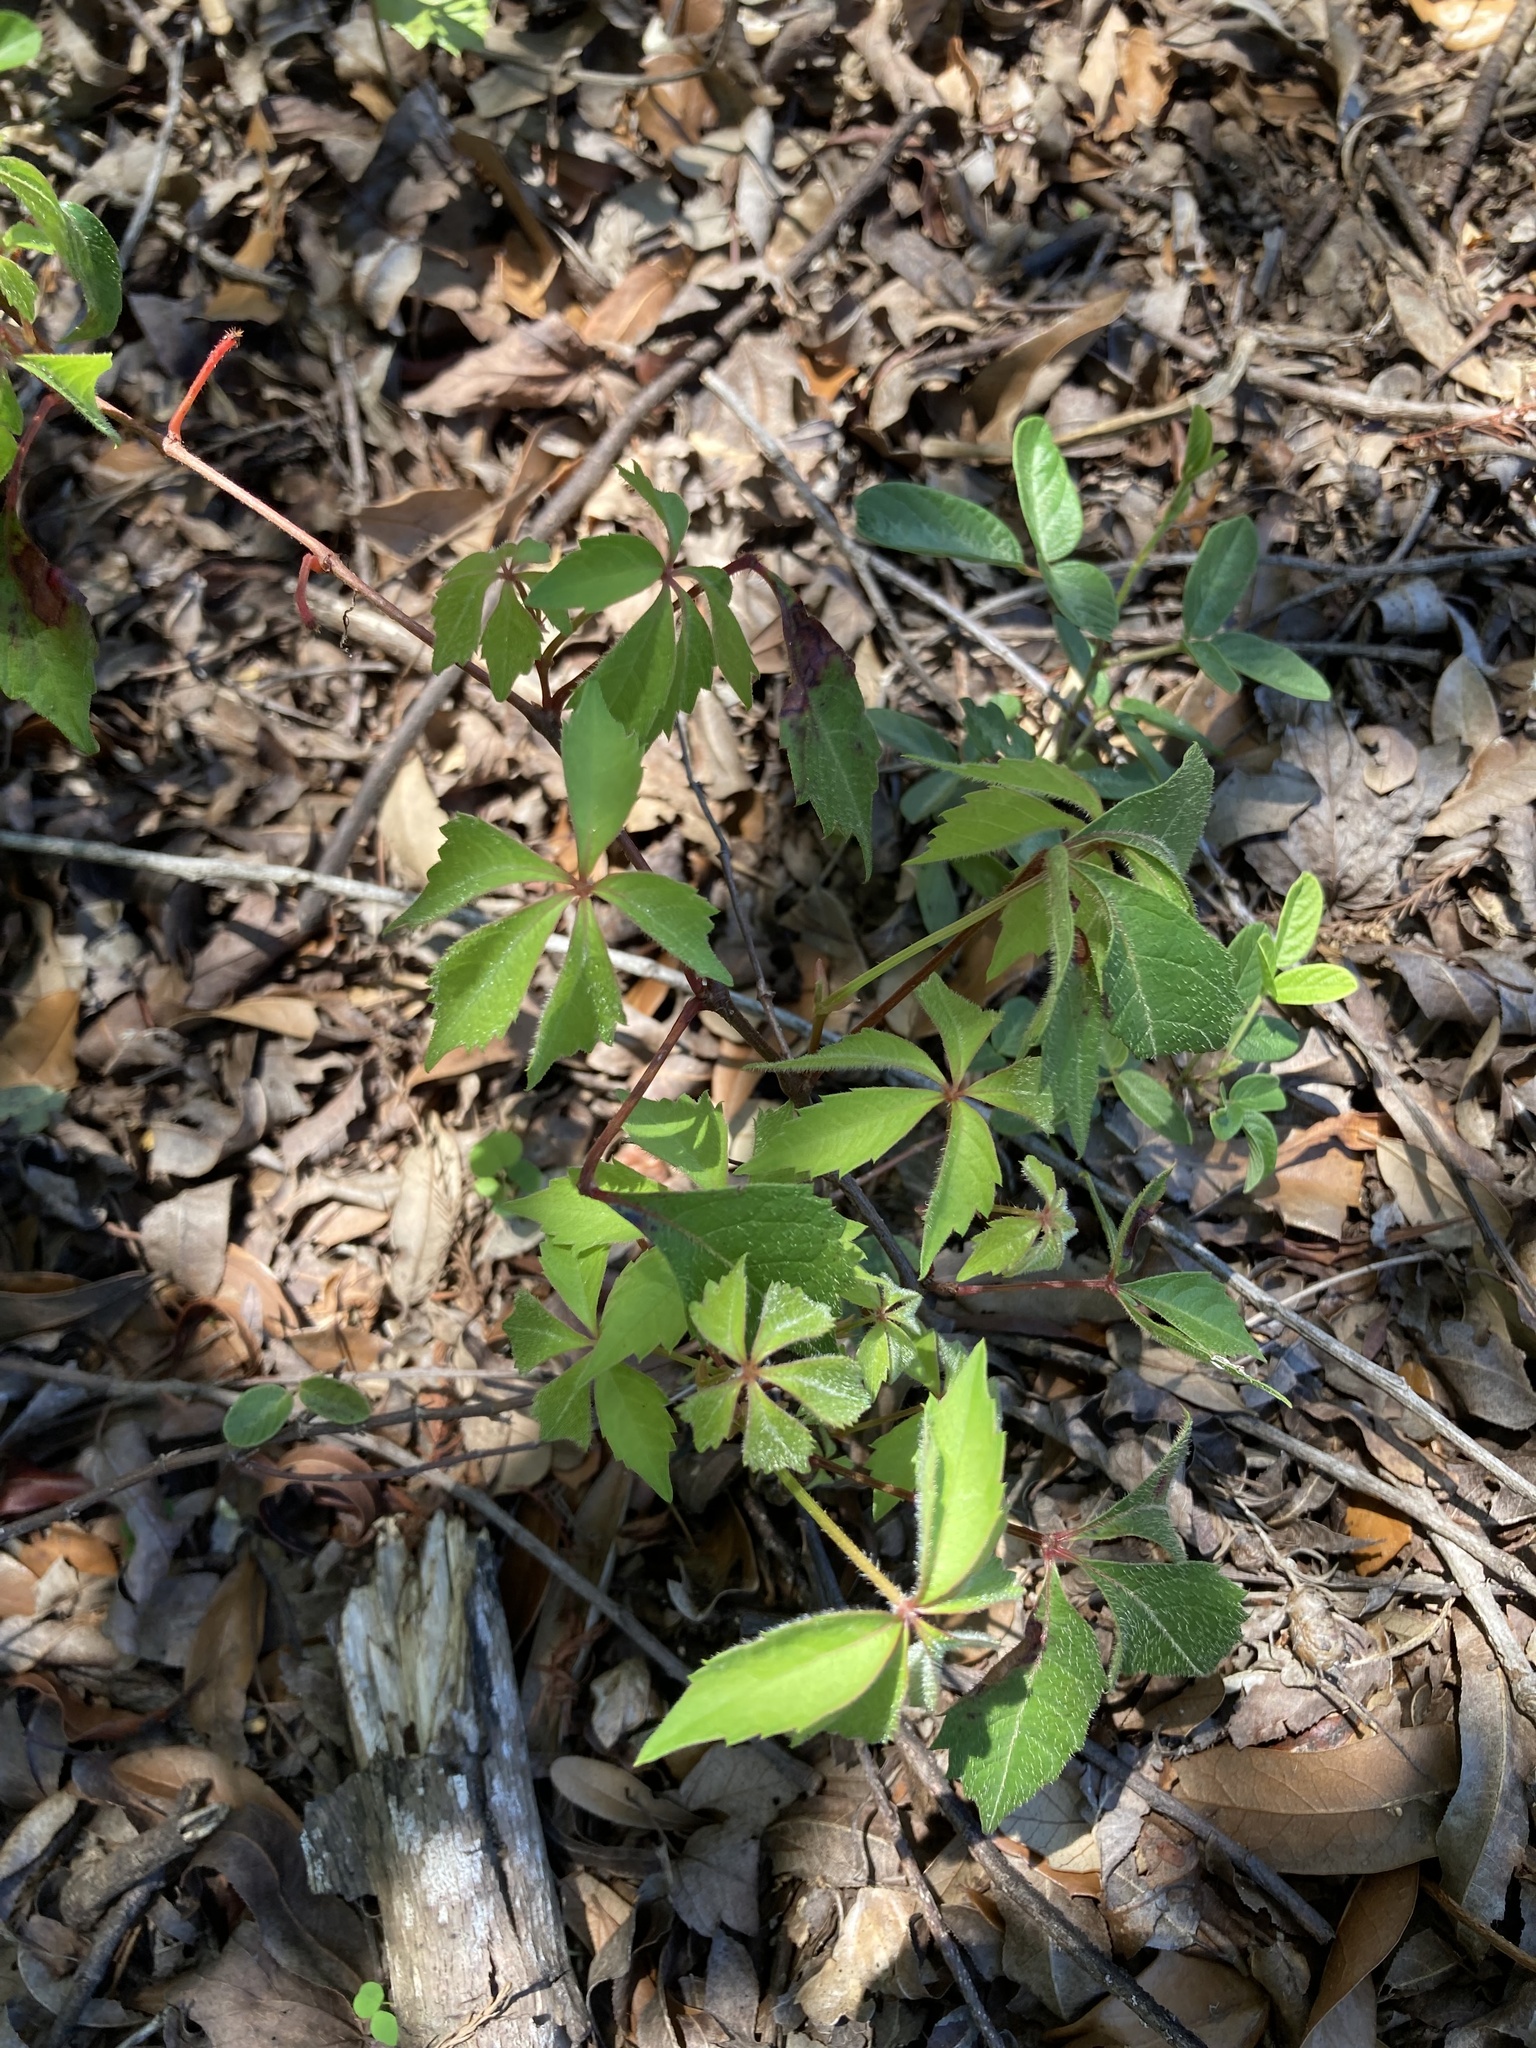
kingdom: Plantae
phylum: Tracheophyta
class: Magnoliopsida
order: Vitales
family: Vitaceae
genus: Parthenocissus
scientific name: Parthenocissus quinquefolia
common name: Virginia-creeper
